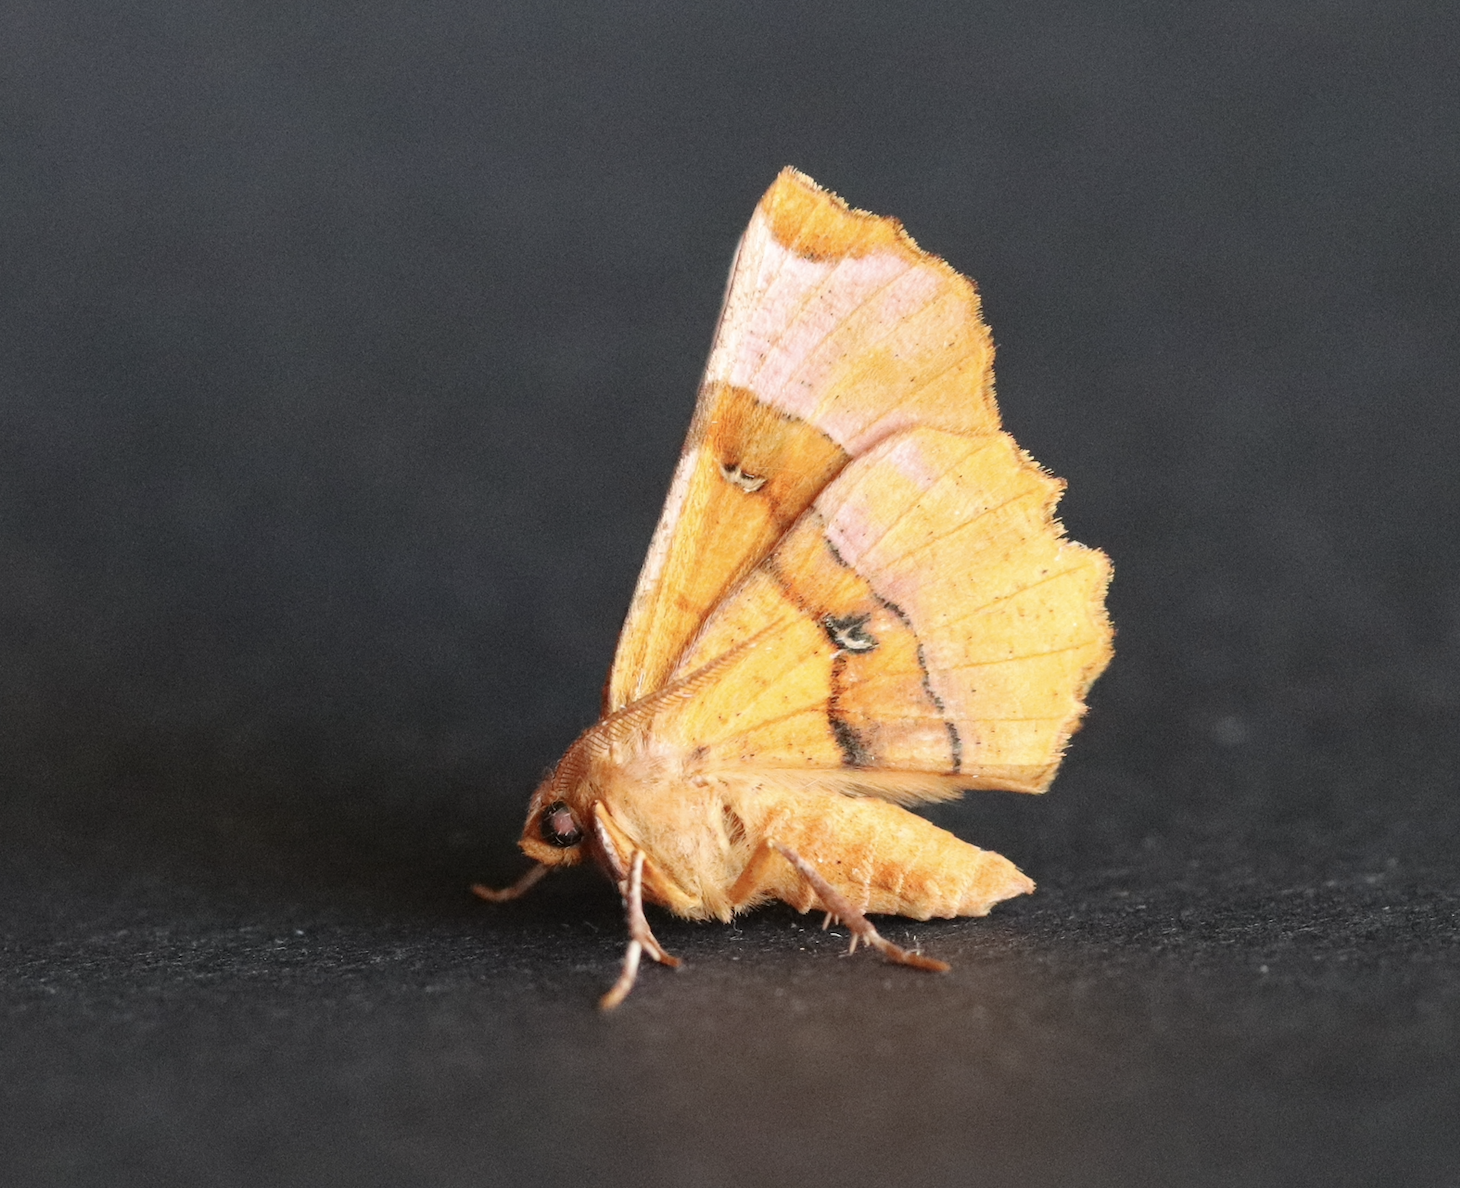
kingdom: Animalia
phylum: Arthropoda
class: Insecta
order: Lepidoptera
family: Geometridae
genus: Selenia
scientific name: Selenia lunularia
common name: Lunar thorn
